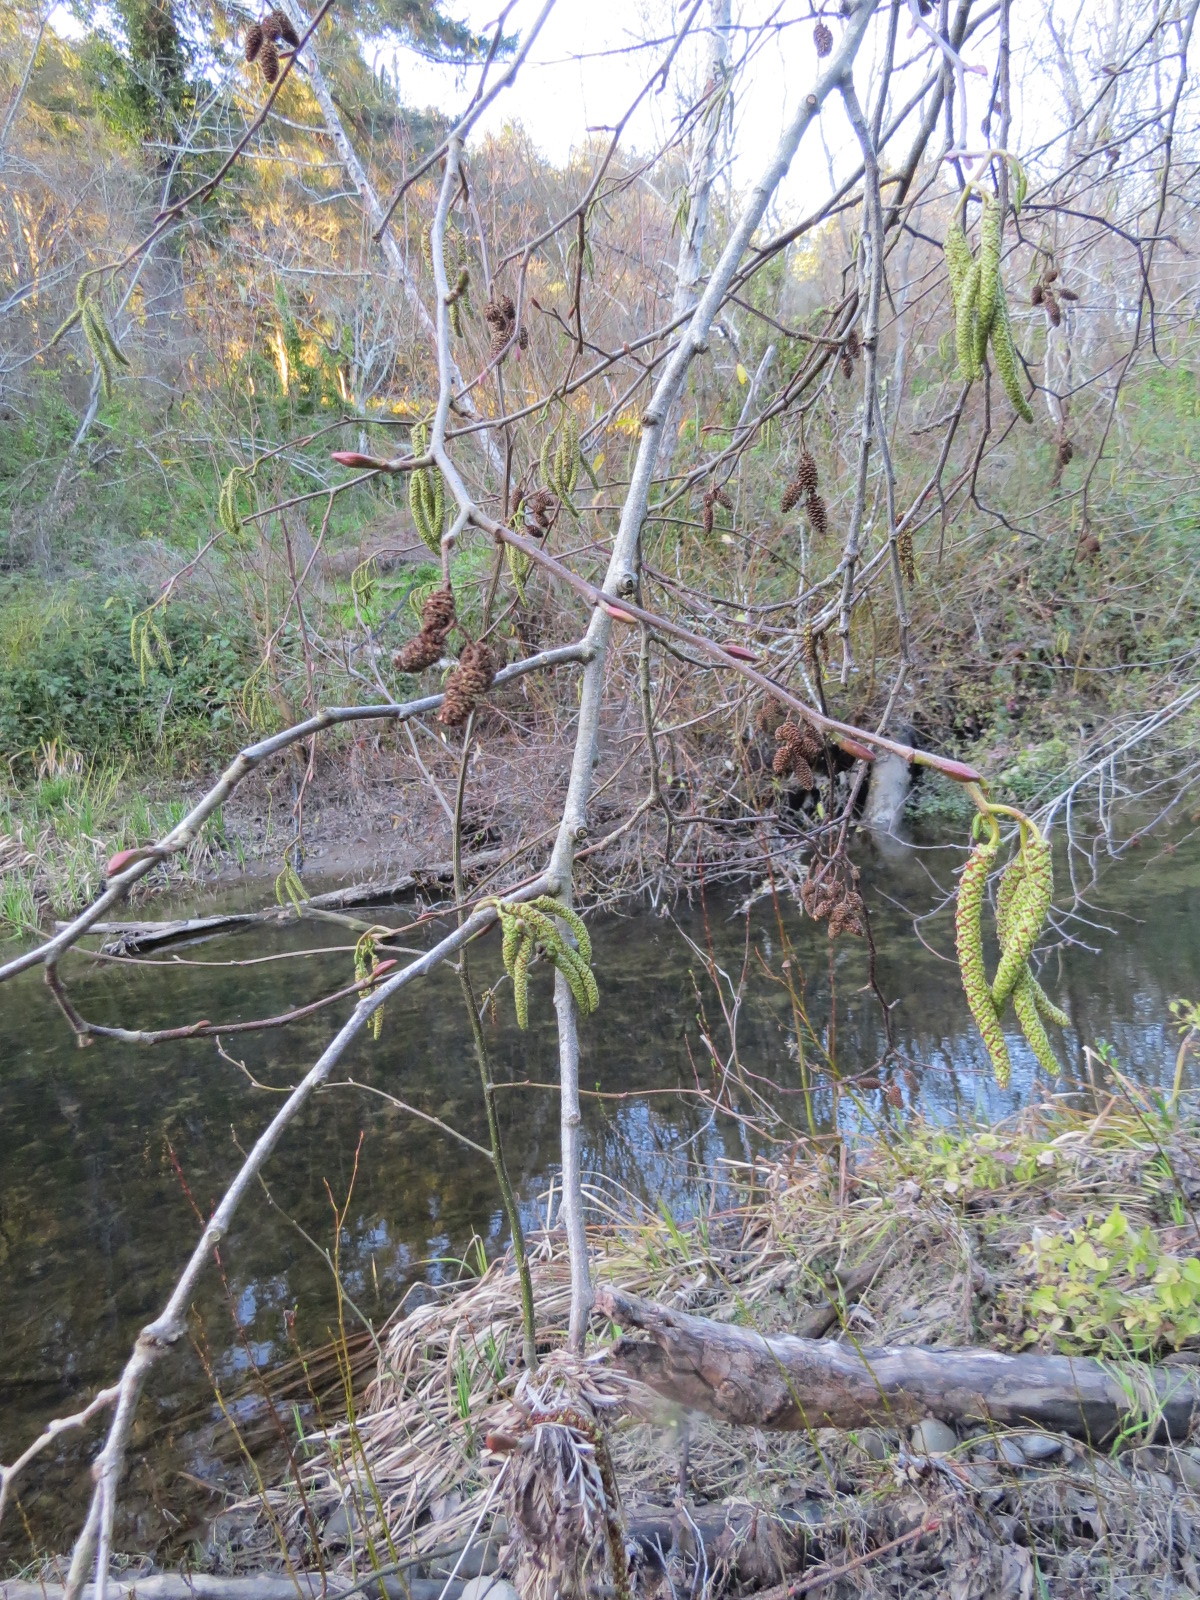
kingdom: Animalia
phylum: Arthropoda
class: Insecta
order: Diptera
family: Cecidomyiidae
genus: Dasineura
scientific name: Dasineura
